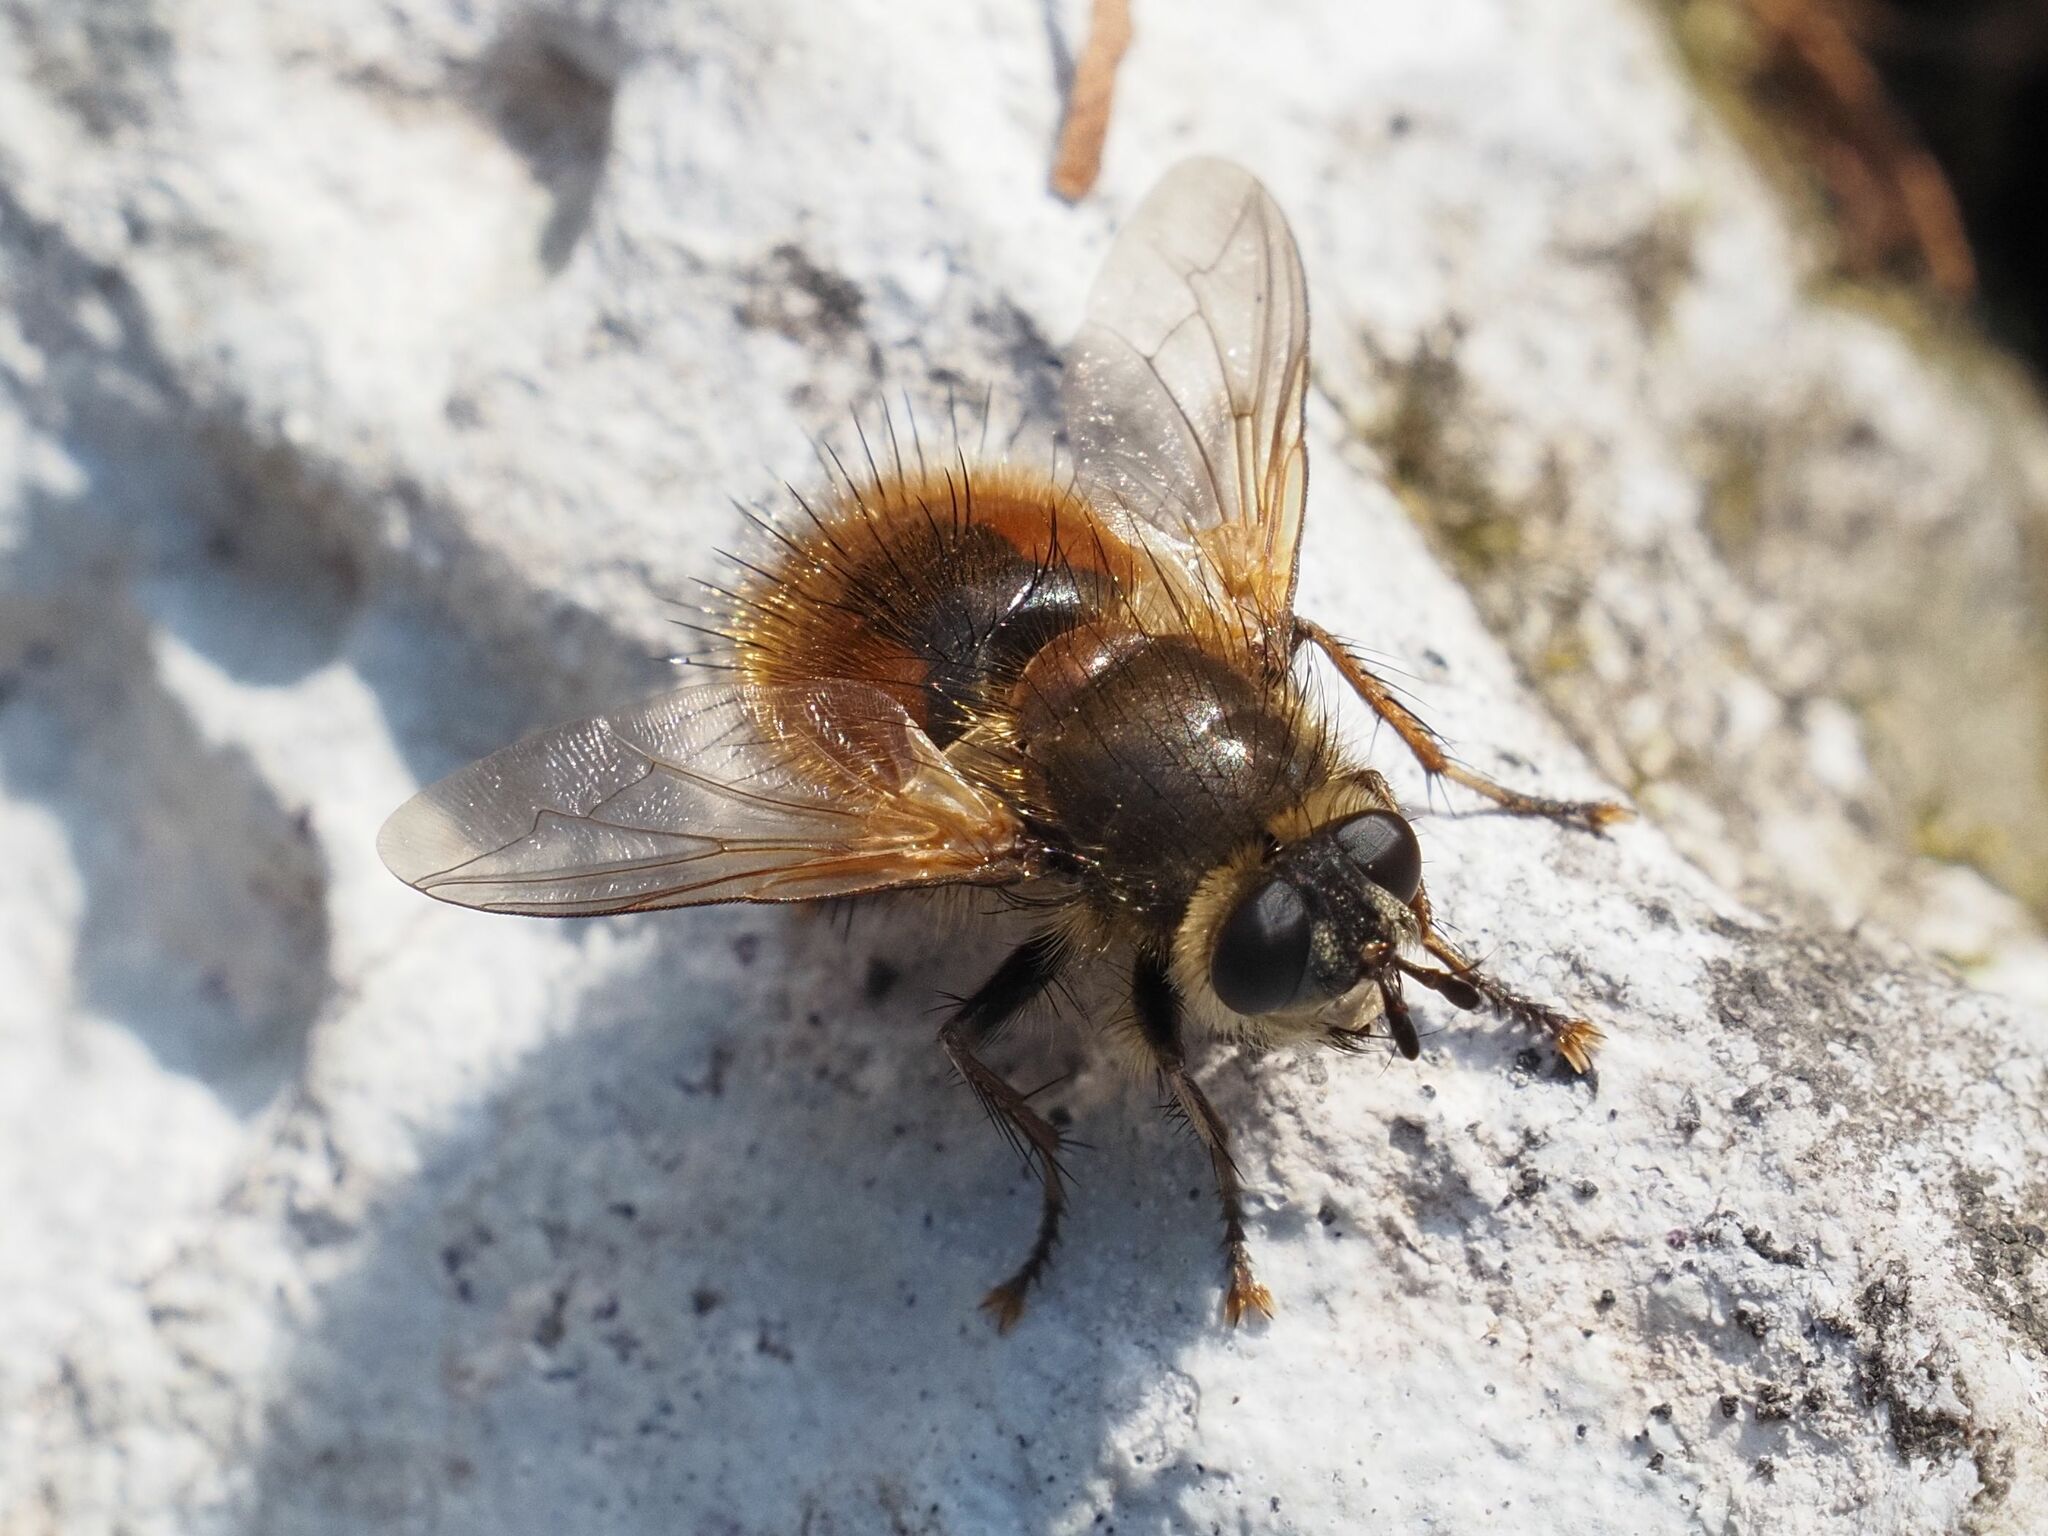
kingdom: Animalia
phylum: Arthropoda
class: Insecta
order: Diptera
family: Tachinidae
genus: Tachina
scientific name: Tachina lurida
